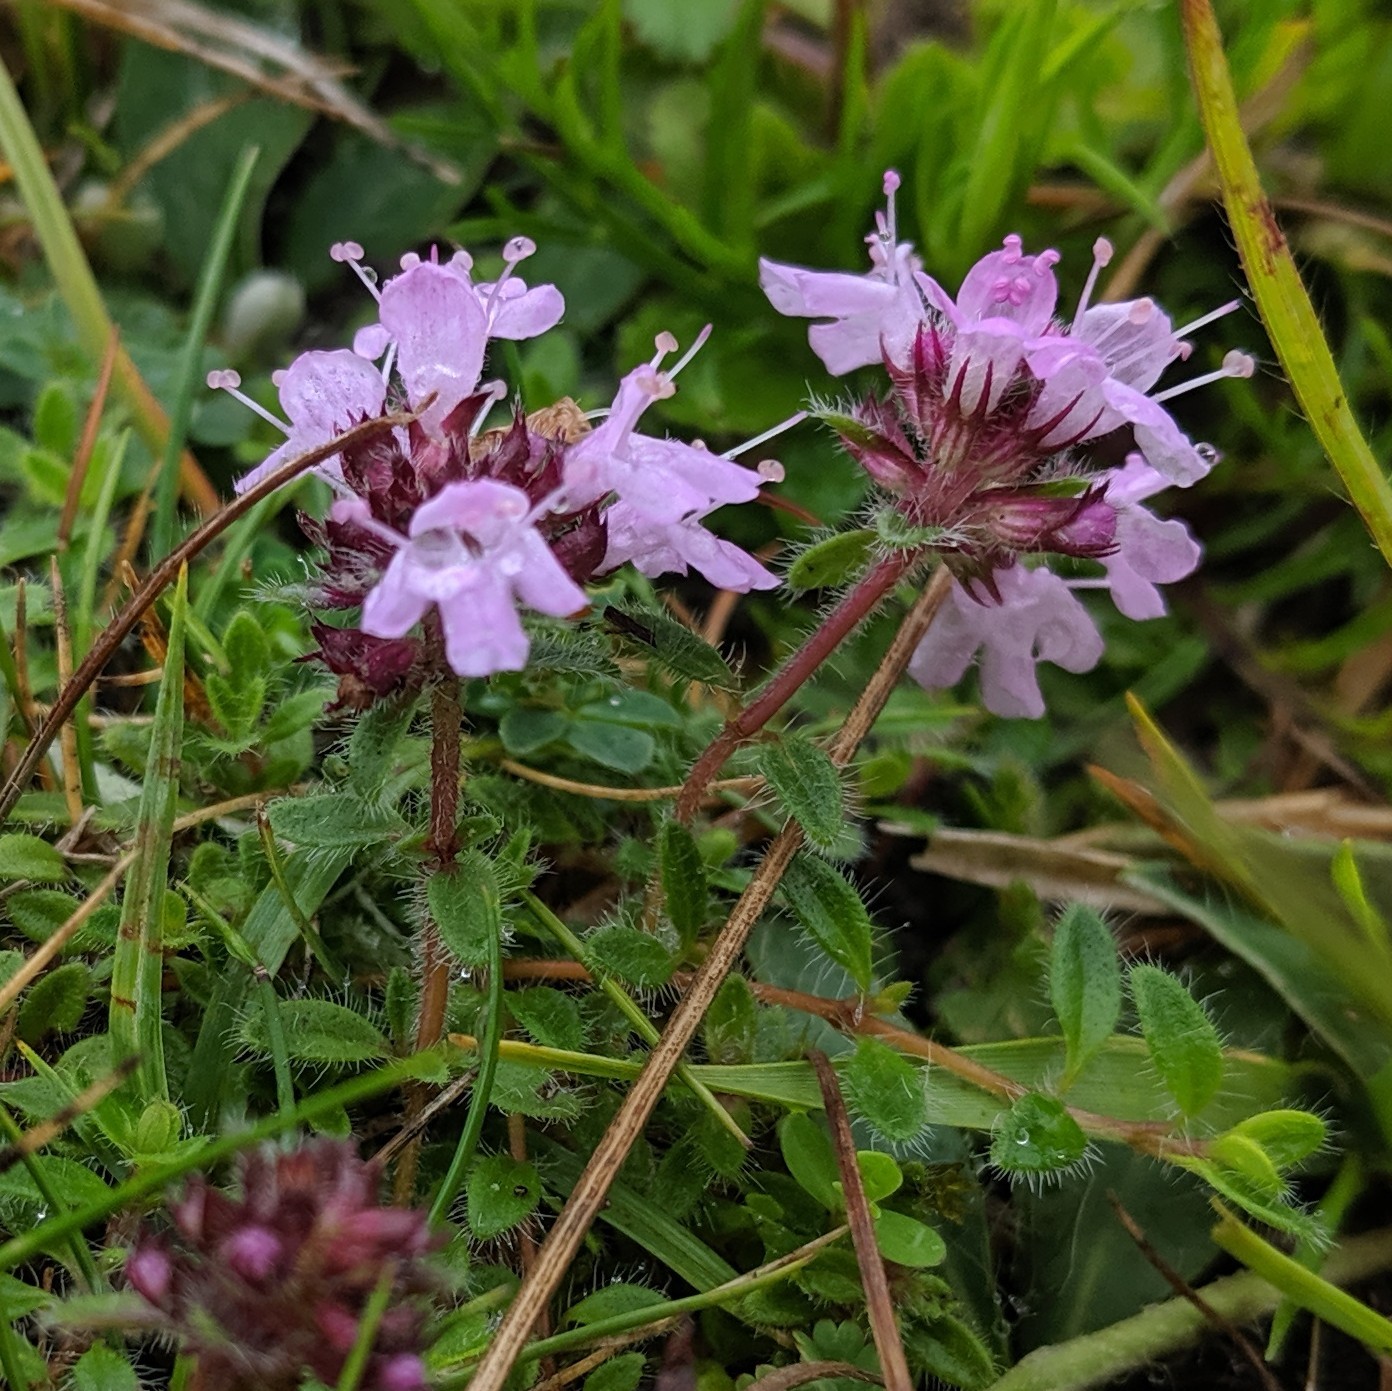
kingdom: Plantae
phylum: Tracheophyta
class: Magnoliopsida
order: Lamiales
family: Lamiaceae
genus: Thymus
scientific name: Thymus praecox
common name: Wild thyme
